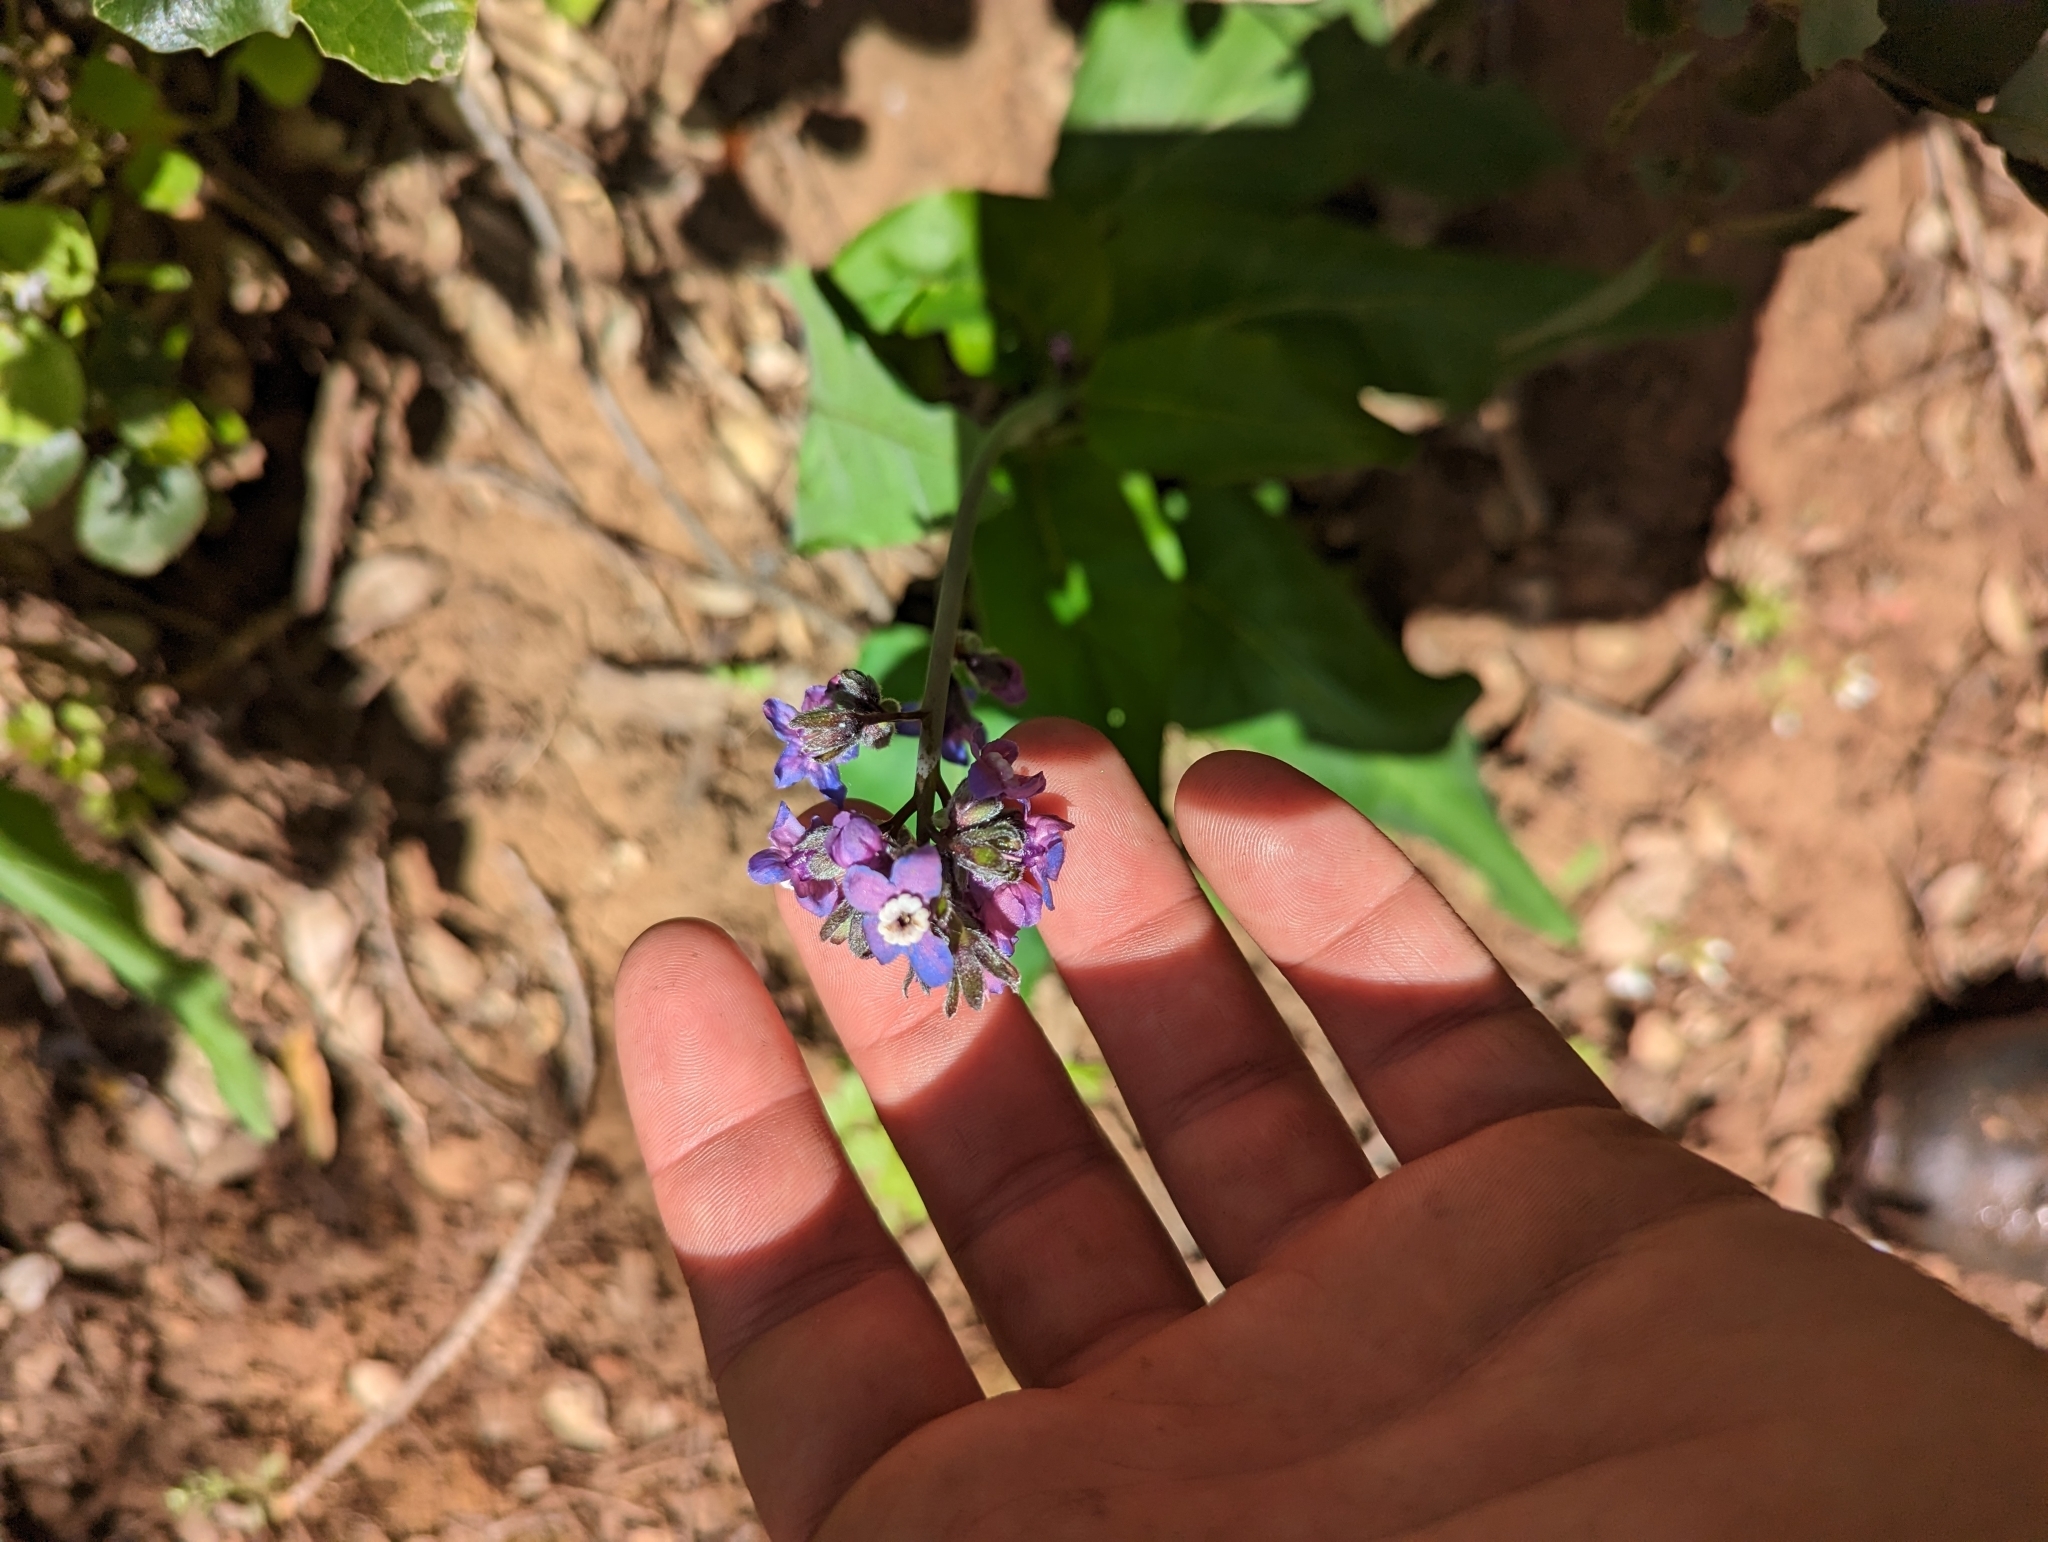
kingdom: Plantae
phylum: Tracheophyta
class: Magnoliopsida
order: Boraginales
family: Boraginaceae
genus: Adelinia
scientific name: Adelinia grande
